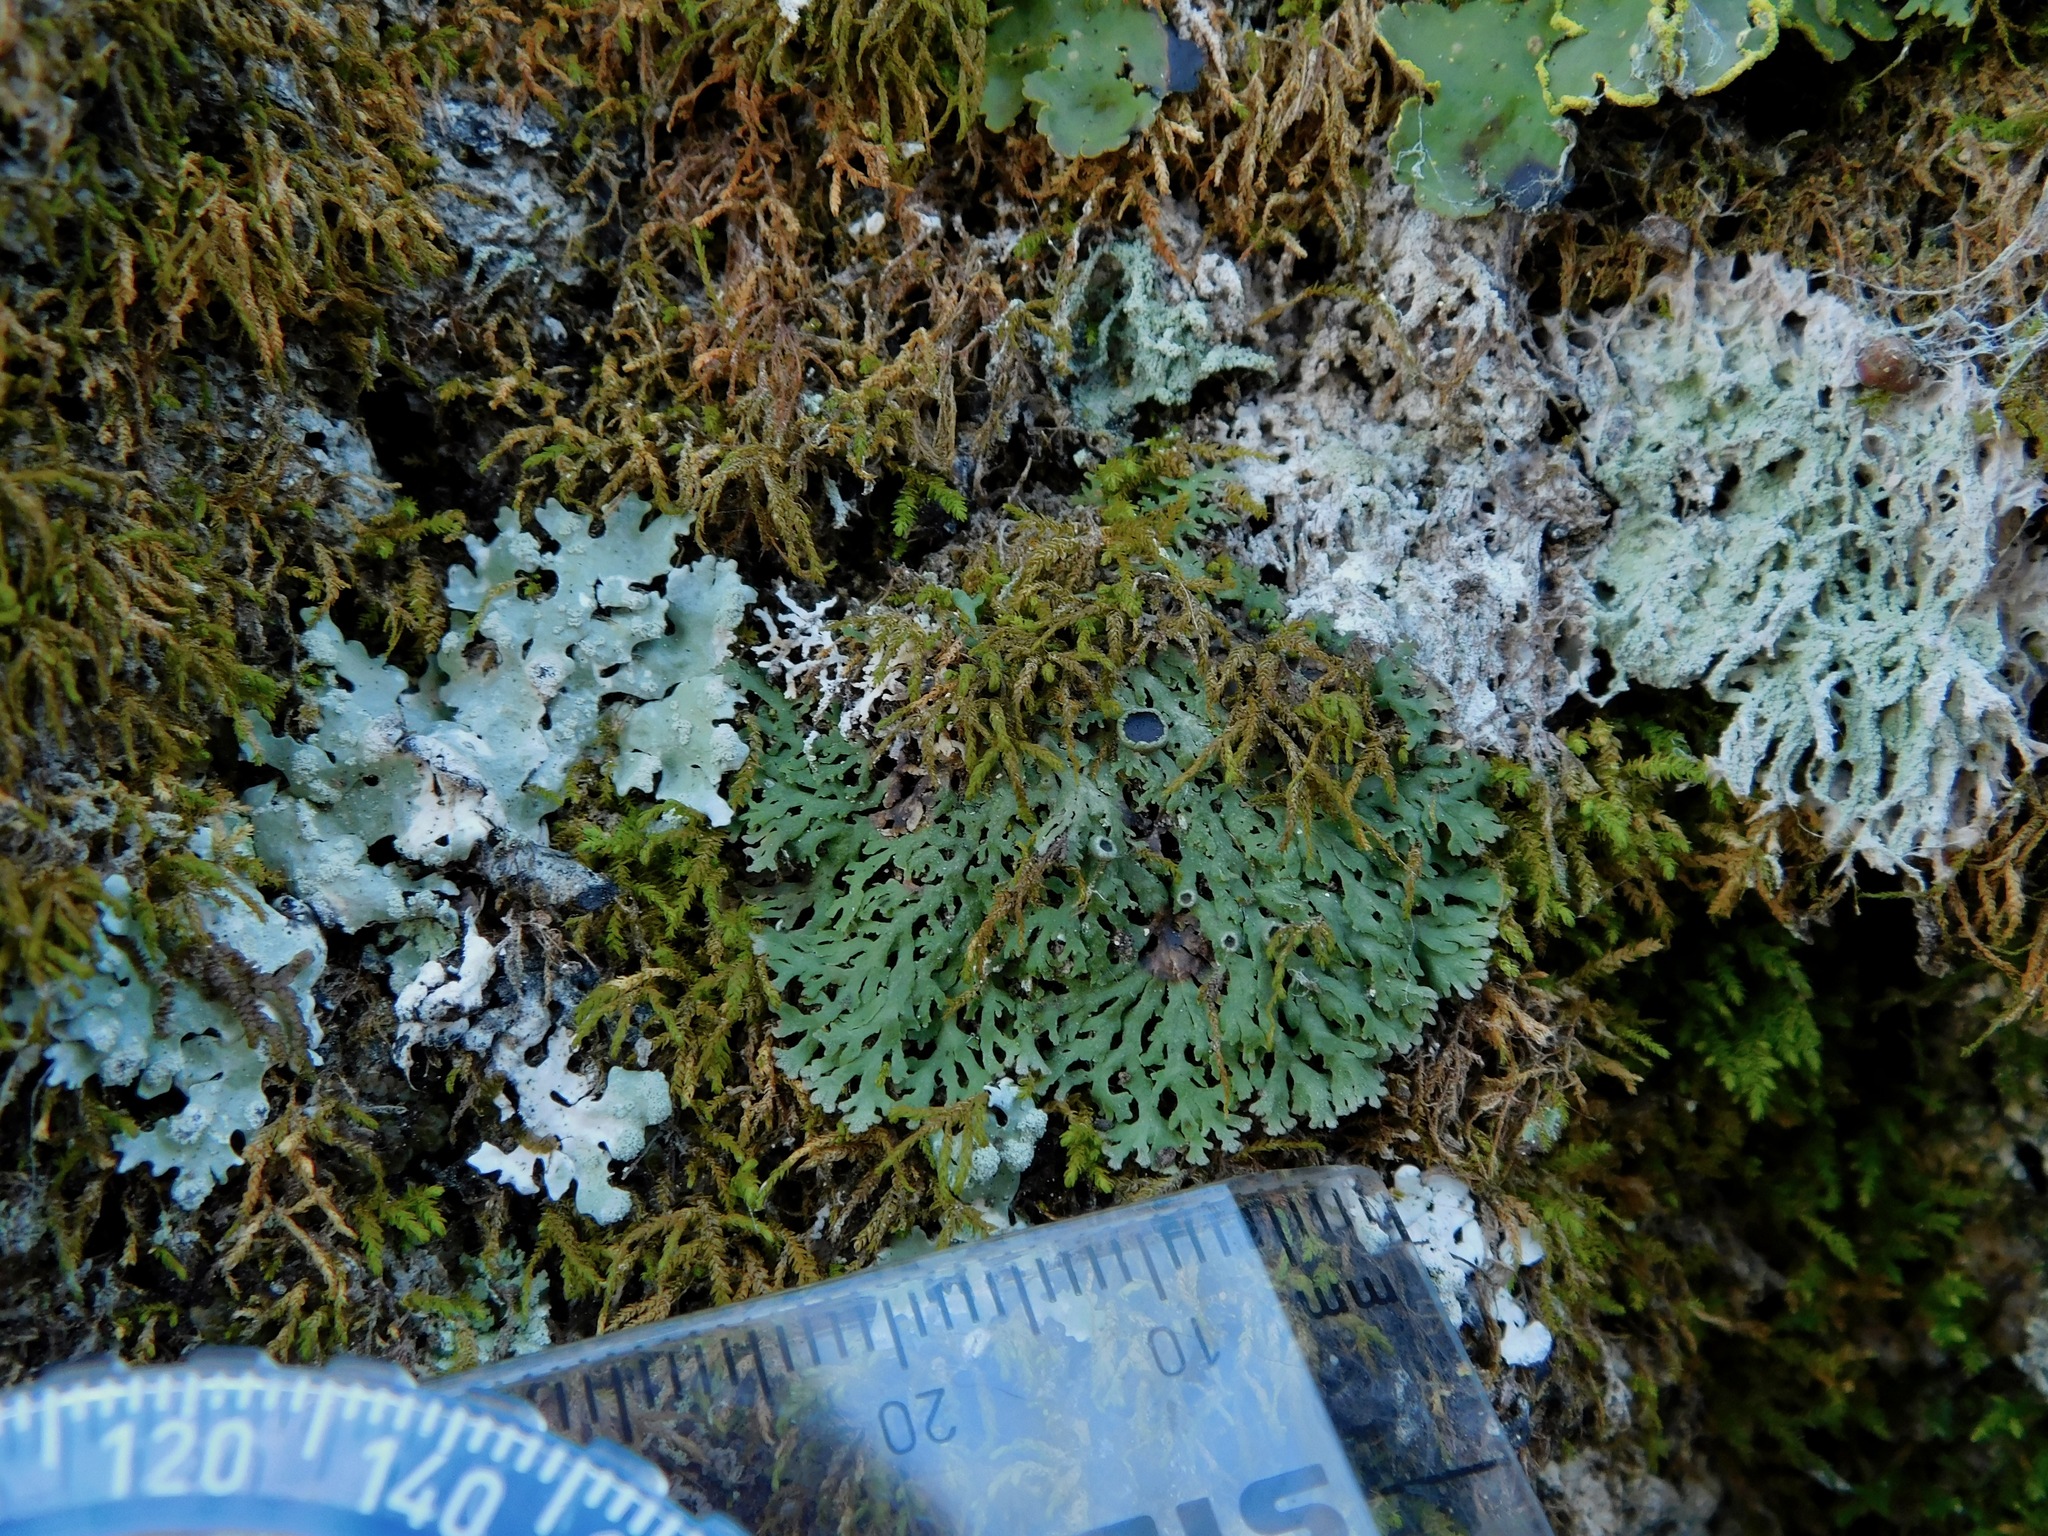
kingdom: Fungi
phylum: Ascomycota
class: Lecanoromycetes
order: Caliciales
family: Physciaceae
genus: Kurokawia
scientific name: Kurokawia palmulata
